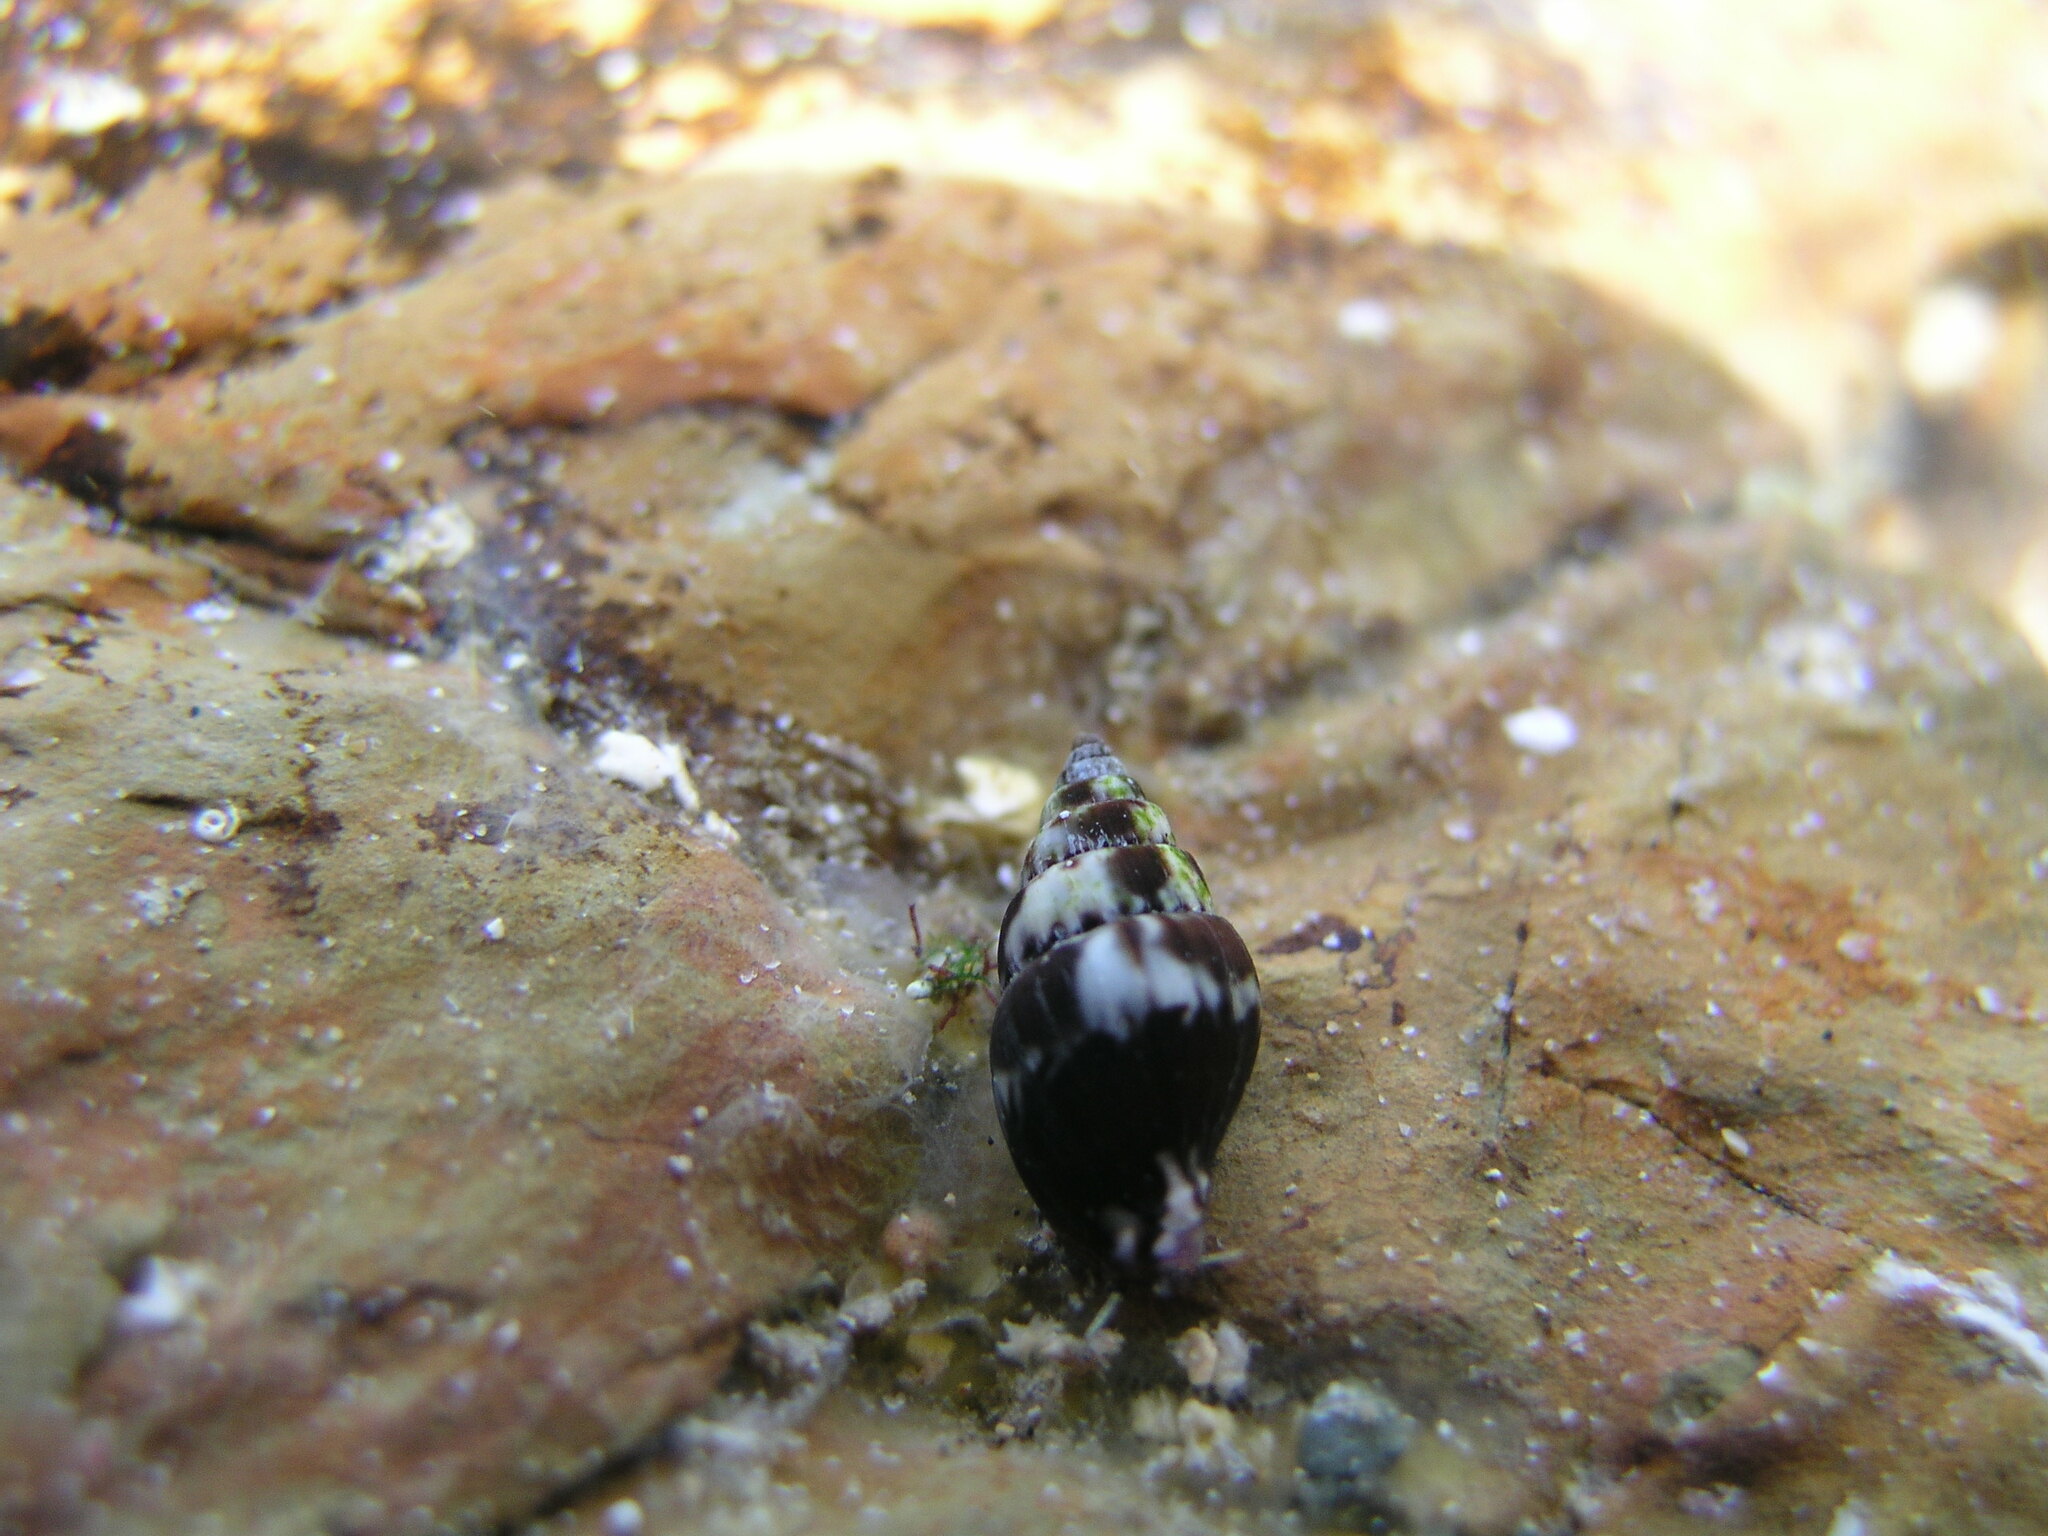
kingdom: Animalia
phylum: Mollusca
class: Gastropoda
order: Neogastropoda
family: Costellariidae
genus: Austromitra
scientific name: Austromitra volucra
